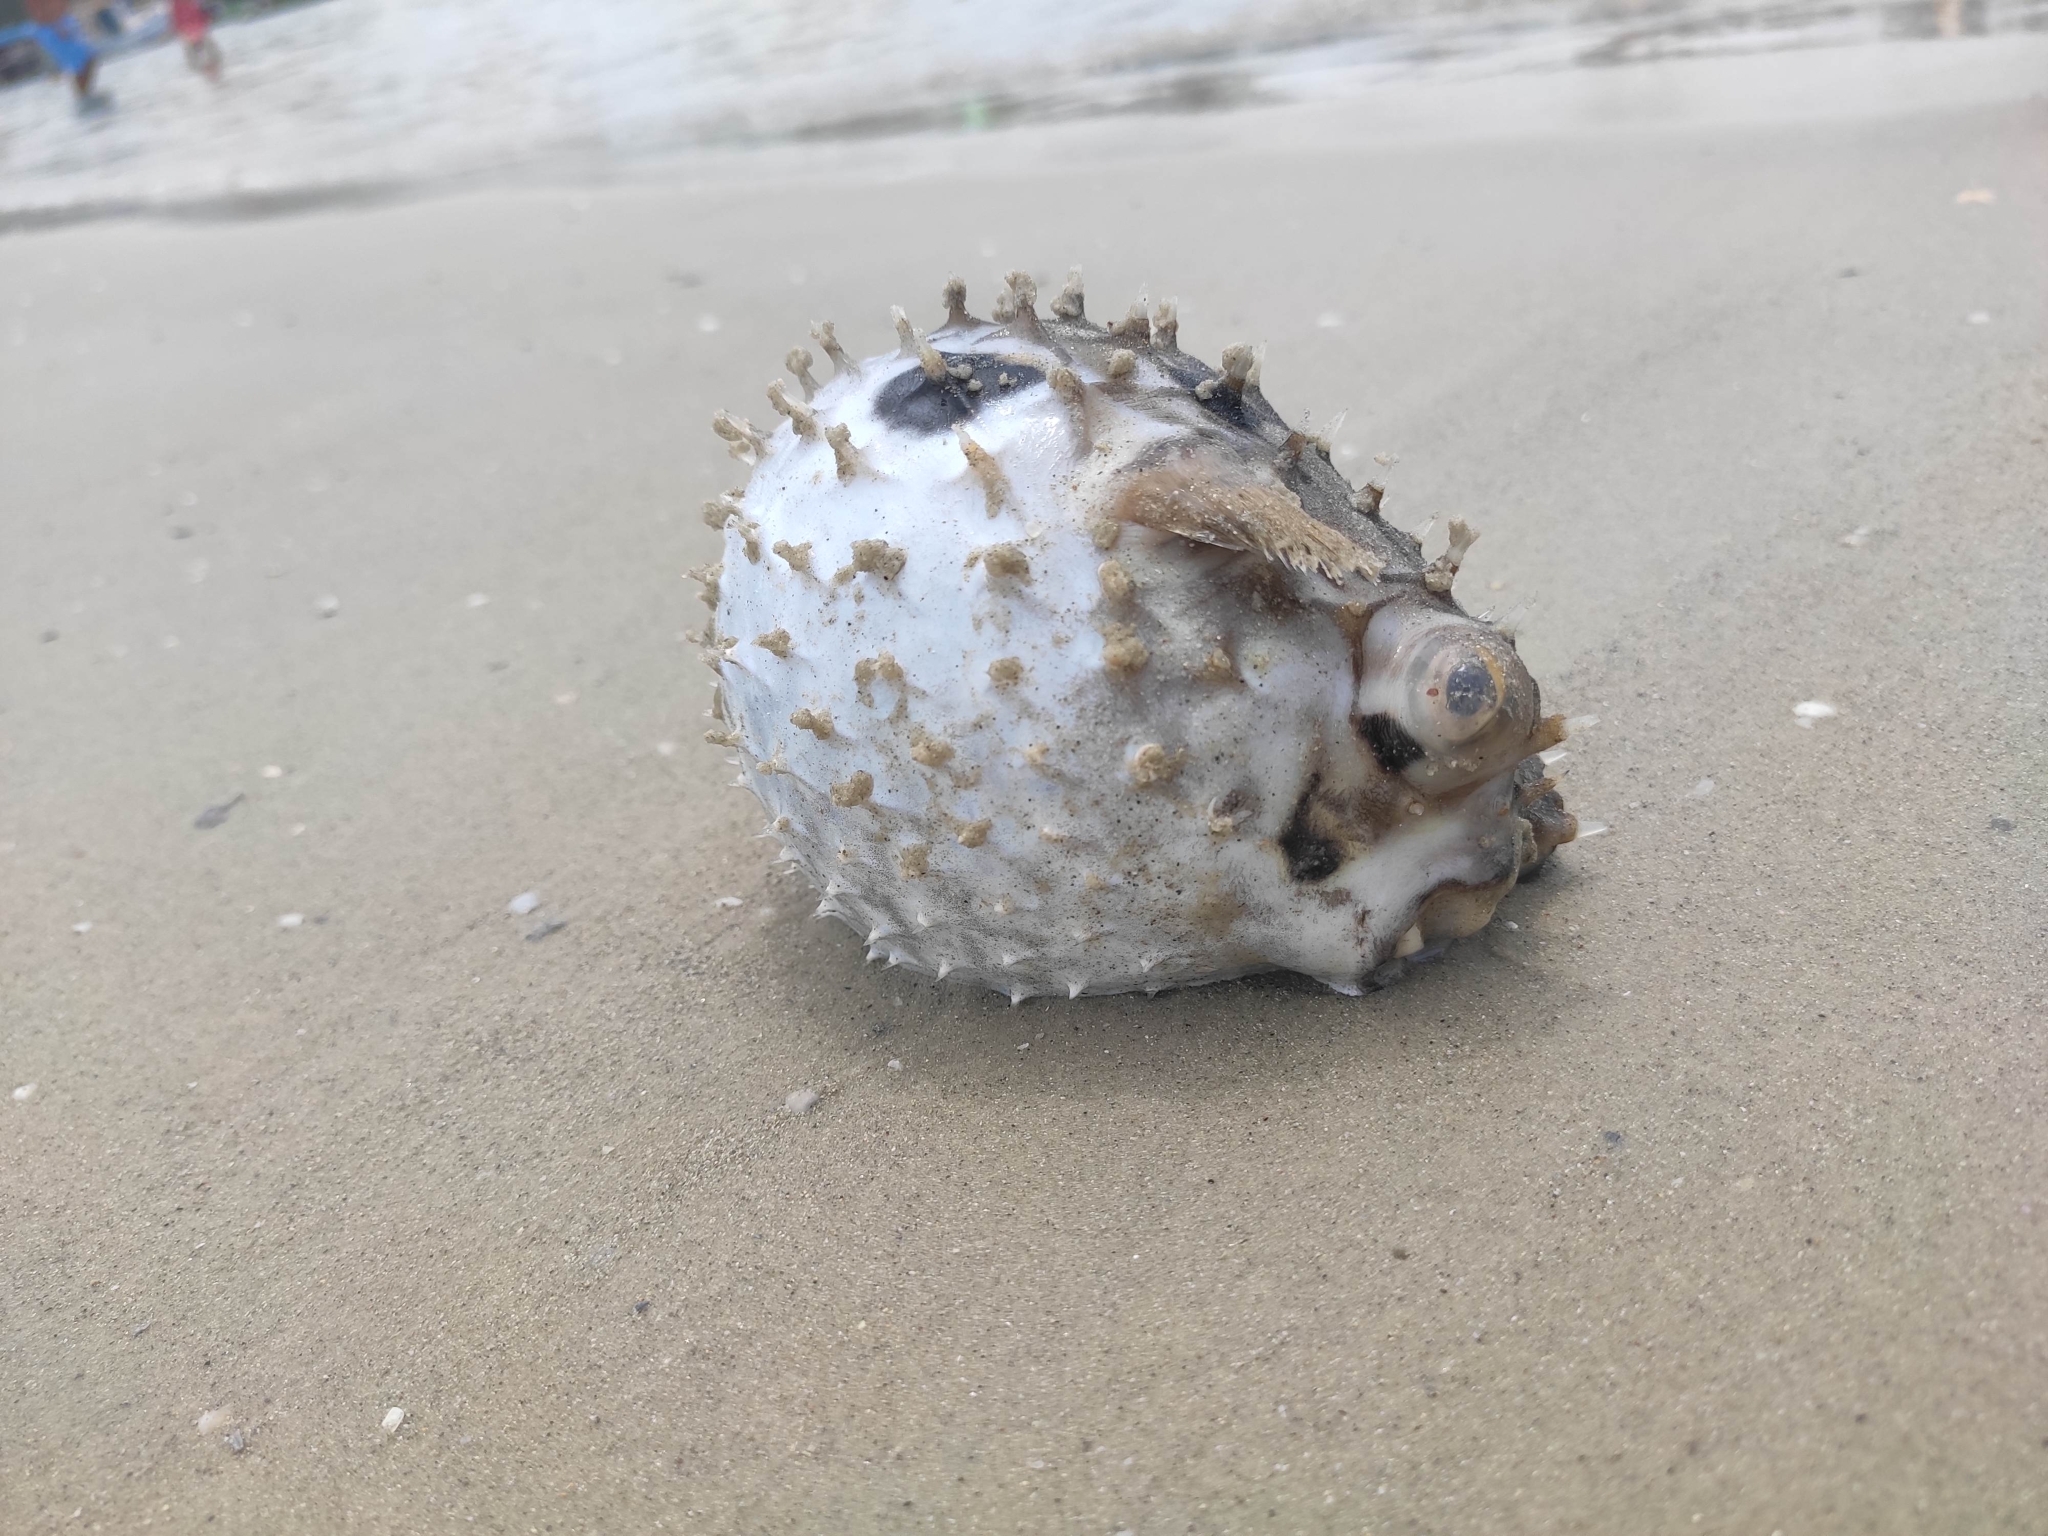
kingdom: Animalia
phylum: Chordata
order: Tetraodontiformes
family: Diodontidae
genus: Chilomycterus
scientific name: Chilomycterus spinosus
